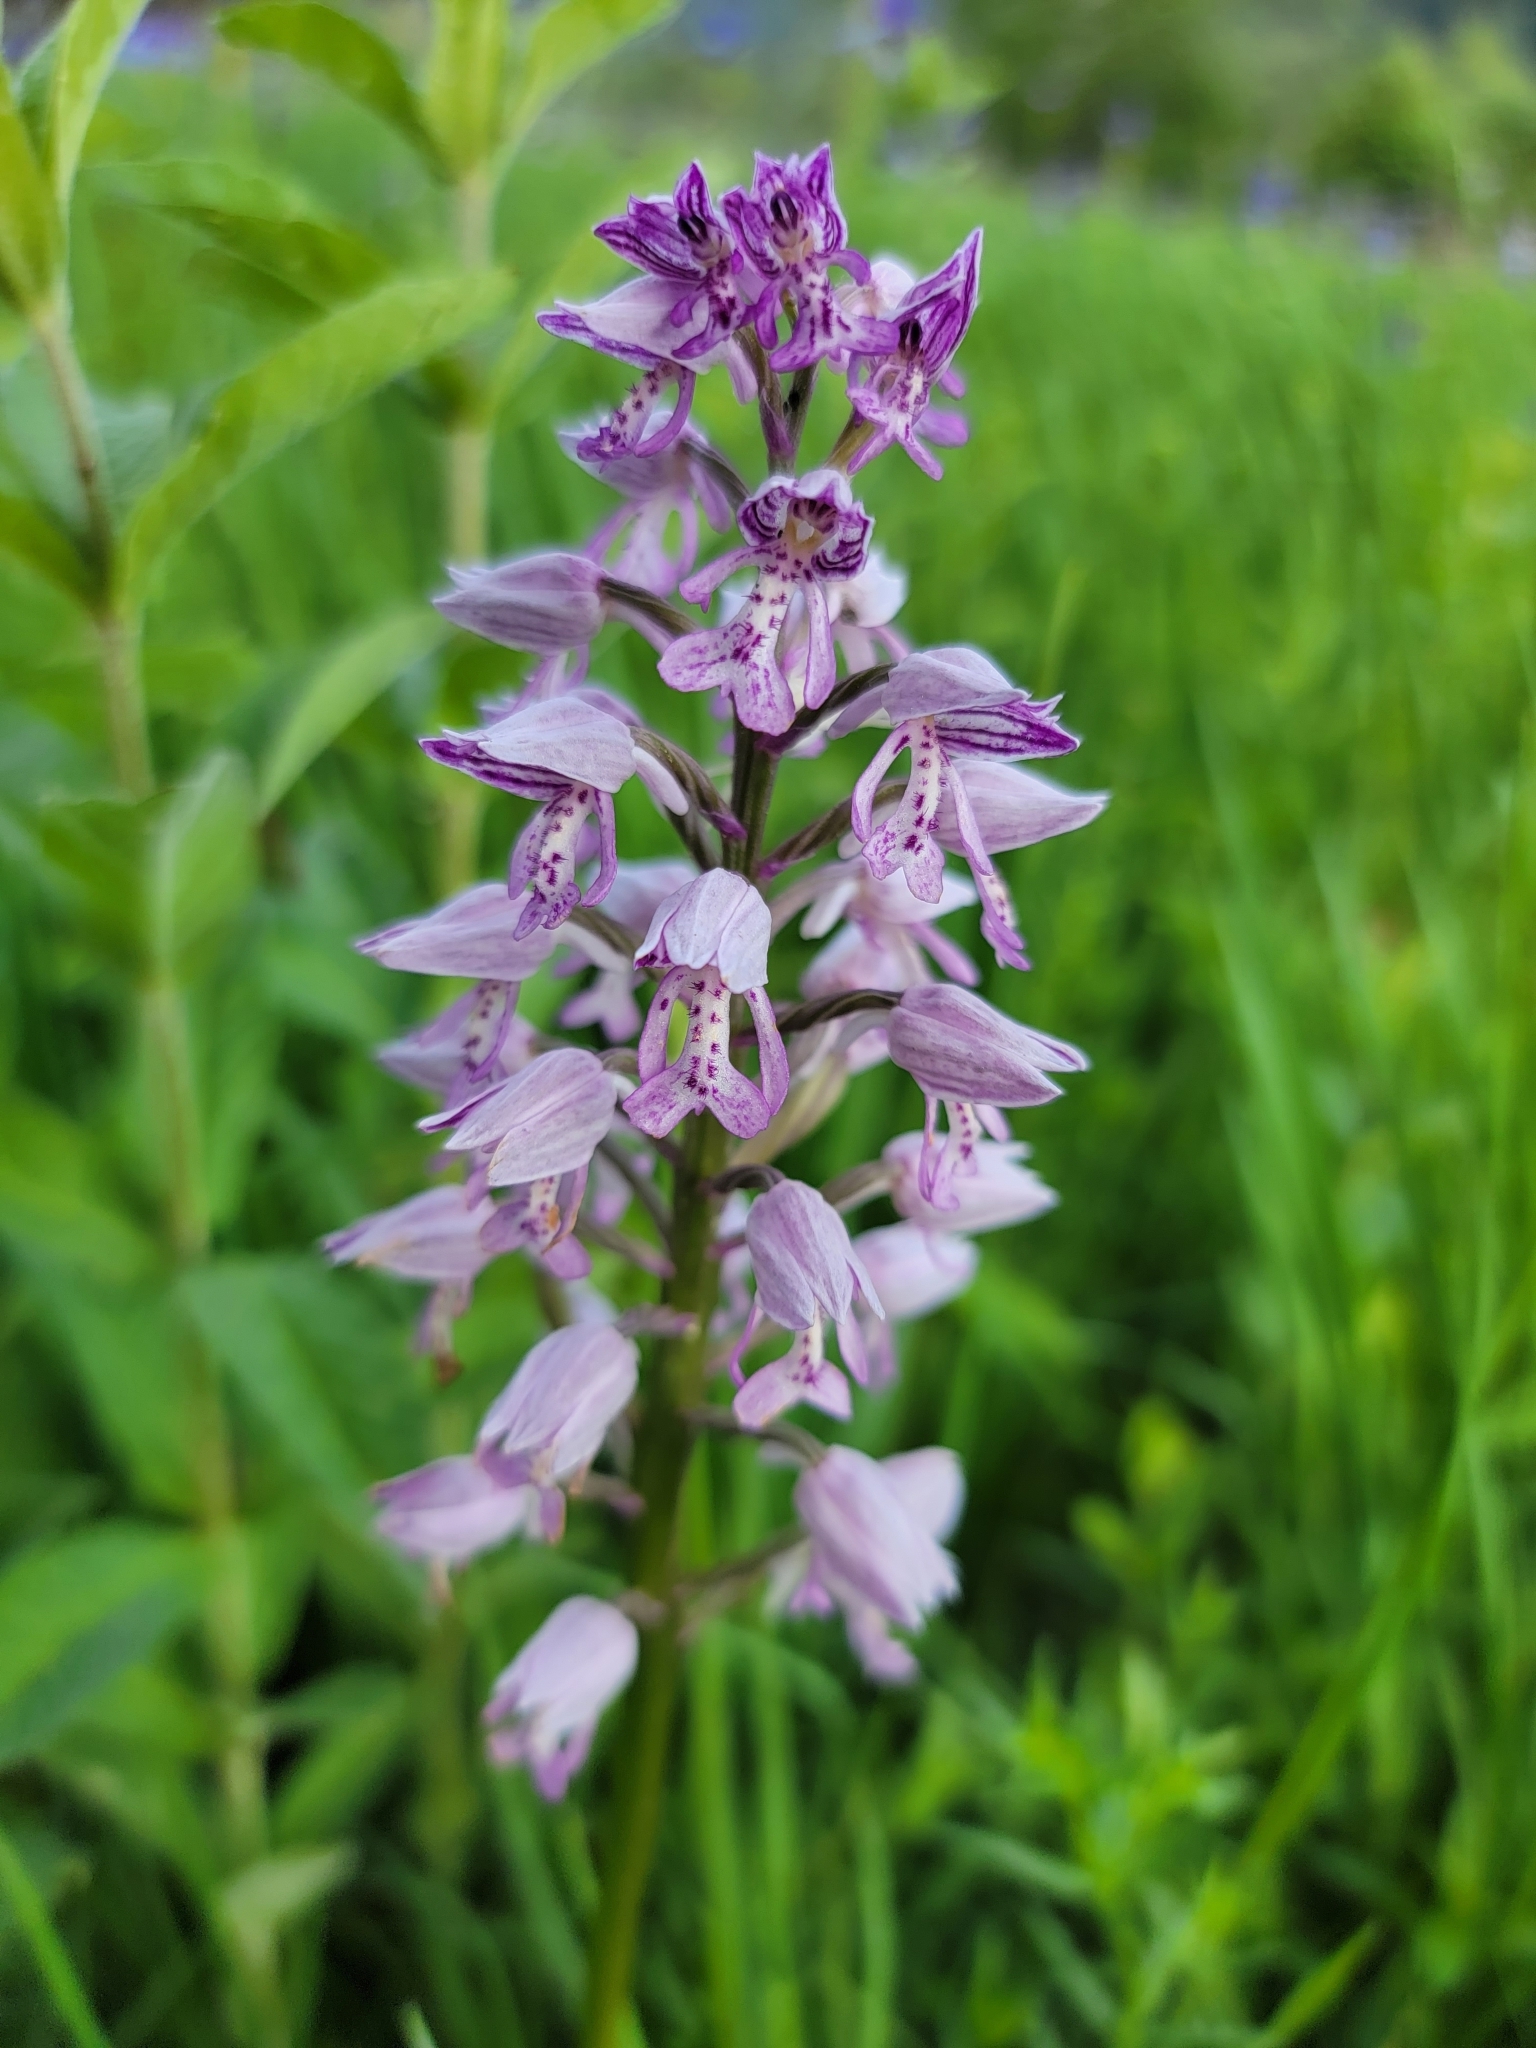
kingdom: Plantae
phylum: Tracheophyta
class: Liliopsida
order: Asparagales
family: Orchidaceae
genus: Orchis
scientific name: Orchis militaris
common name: Military orchid
